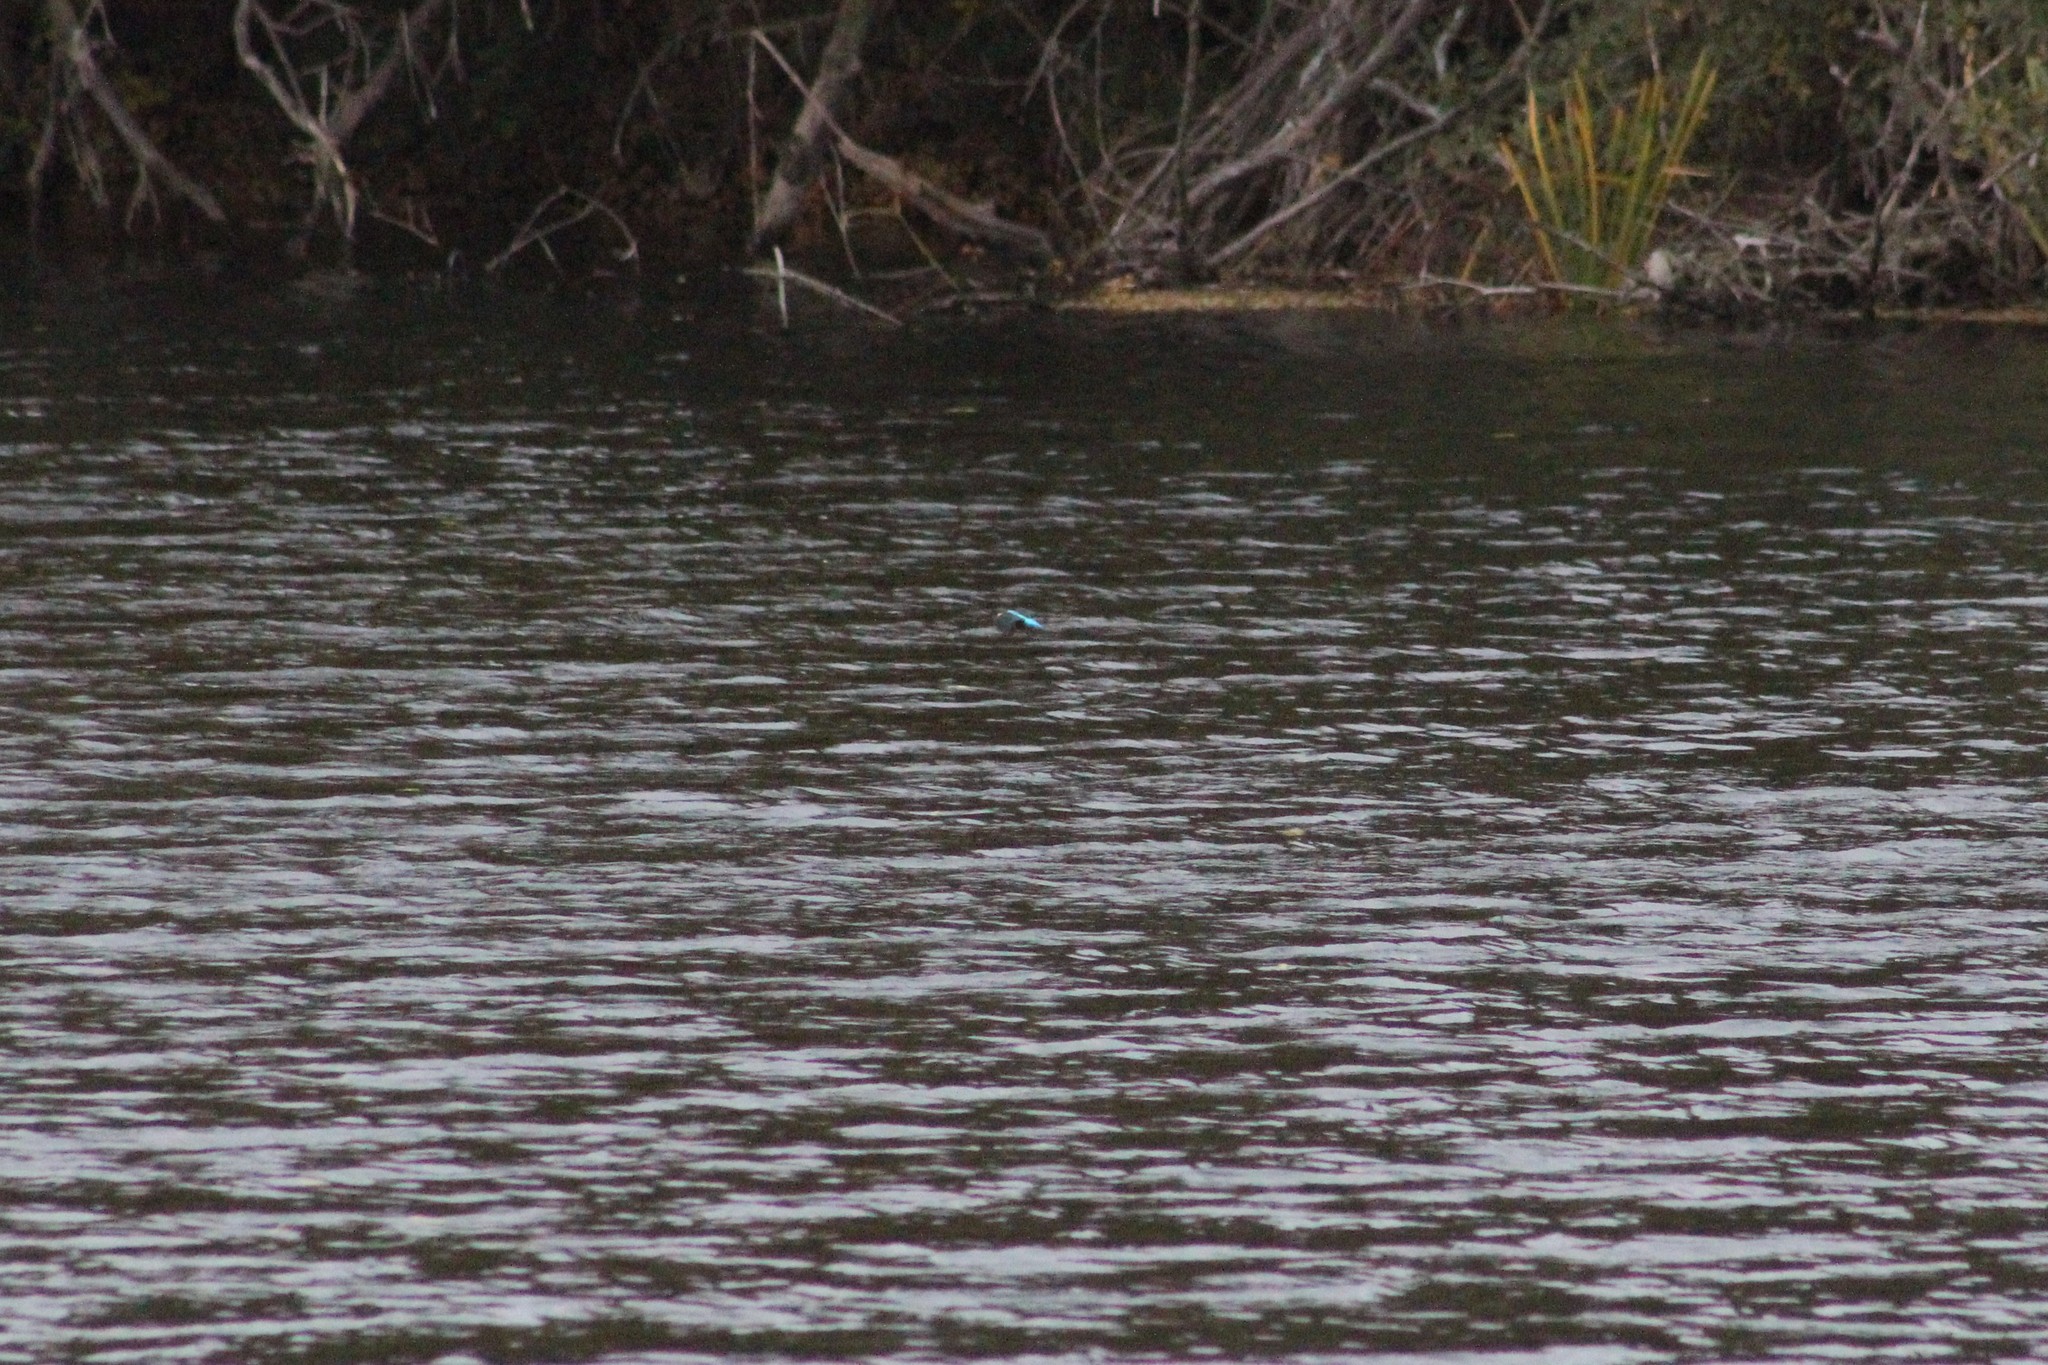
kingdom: Animalia
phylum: Chordata
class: Aves
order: Coraciiformes
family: Alcedinidae
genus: Alcedo
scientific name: Alcedo atthis
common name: Common kingfisher
